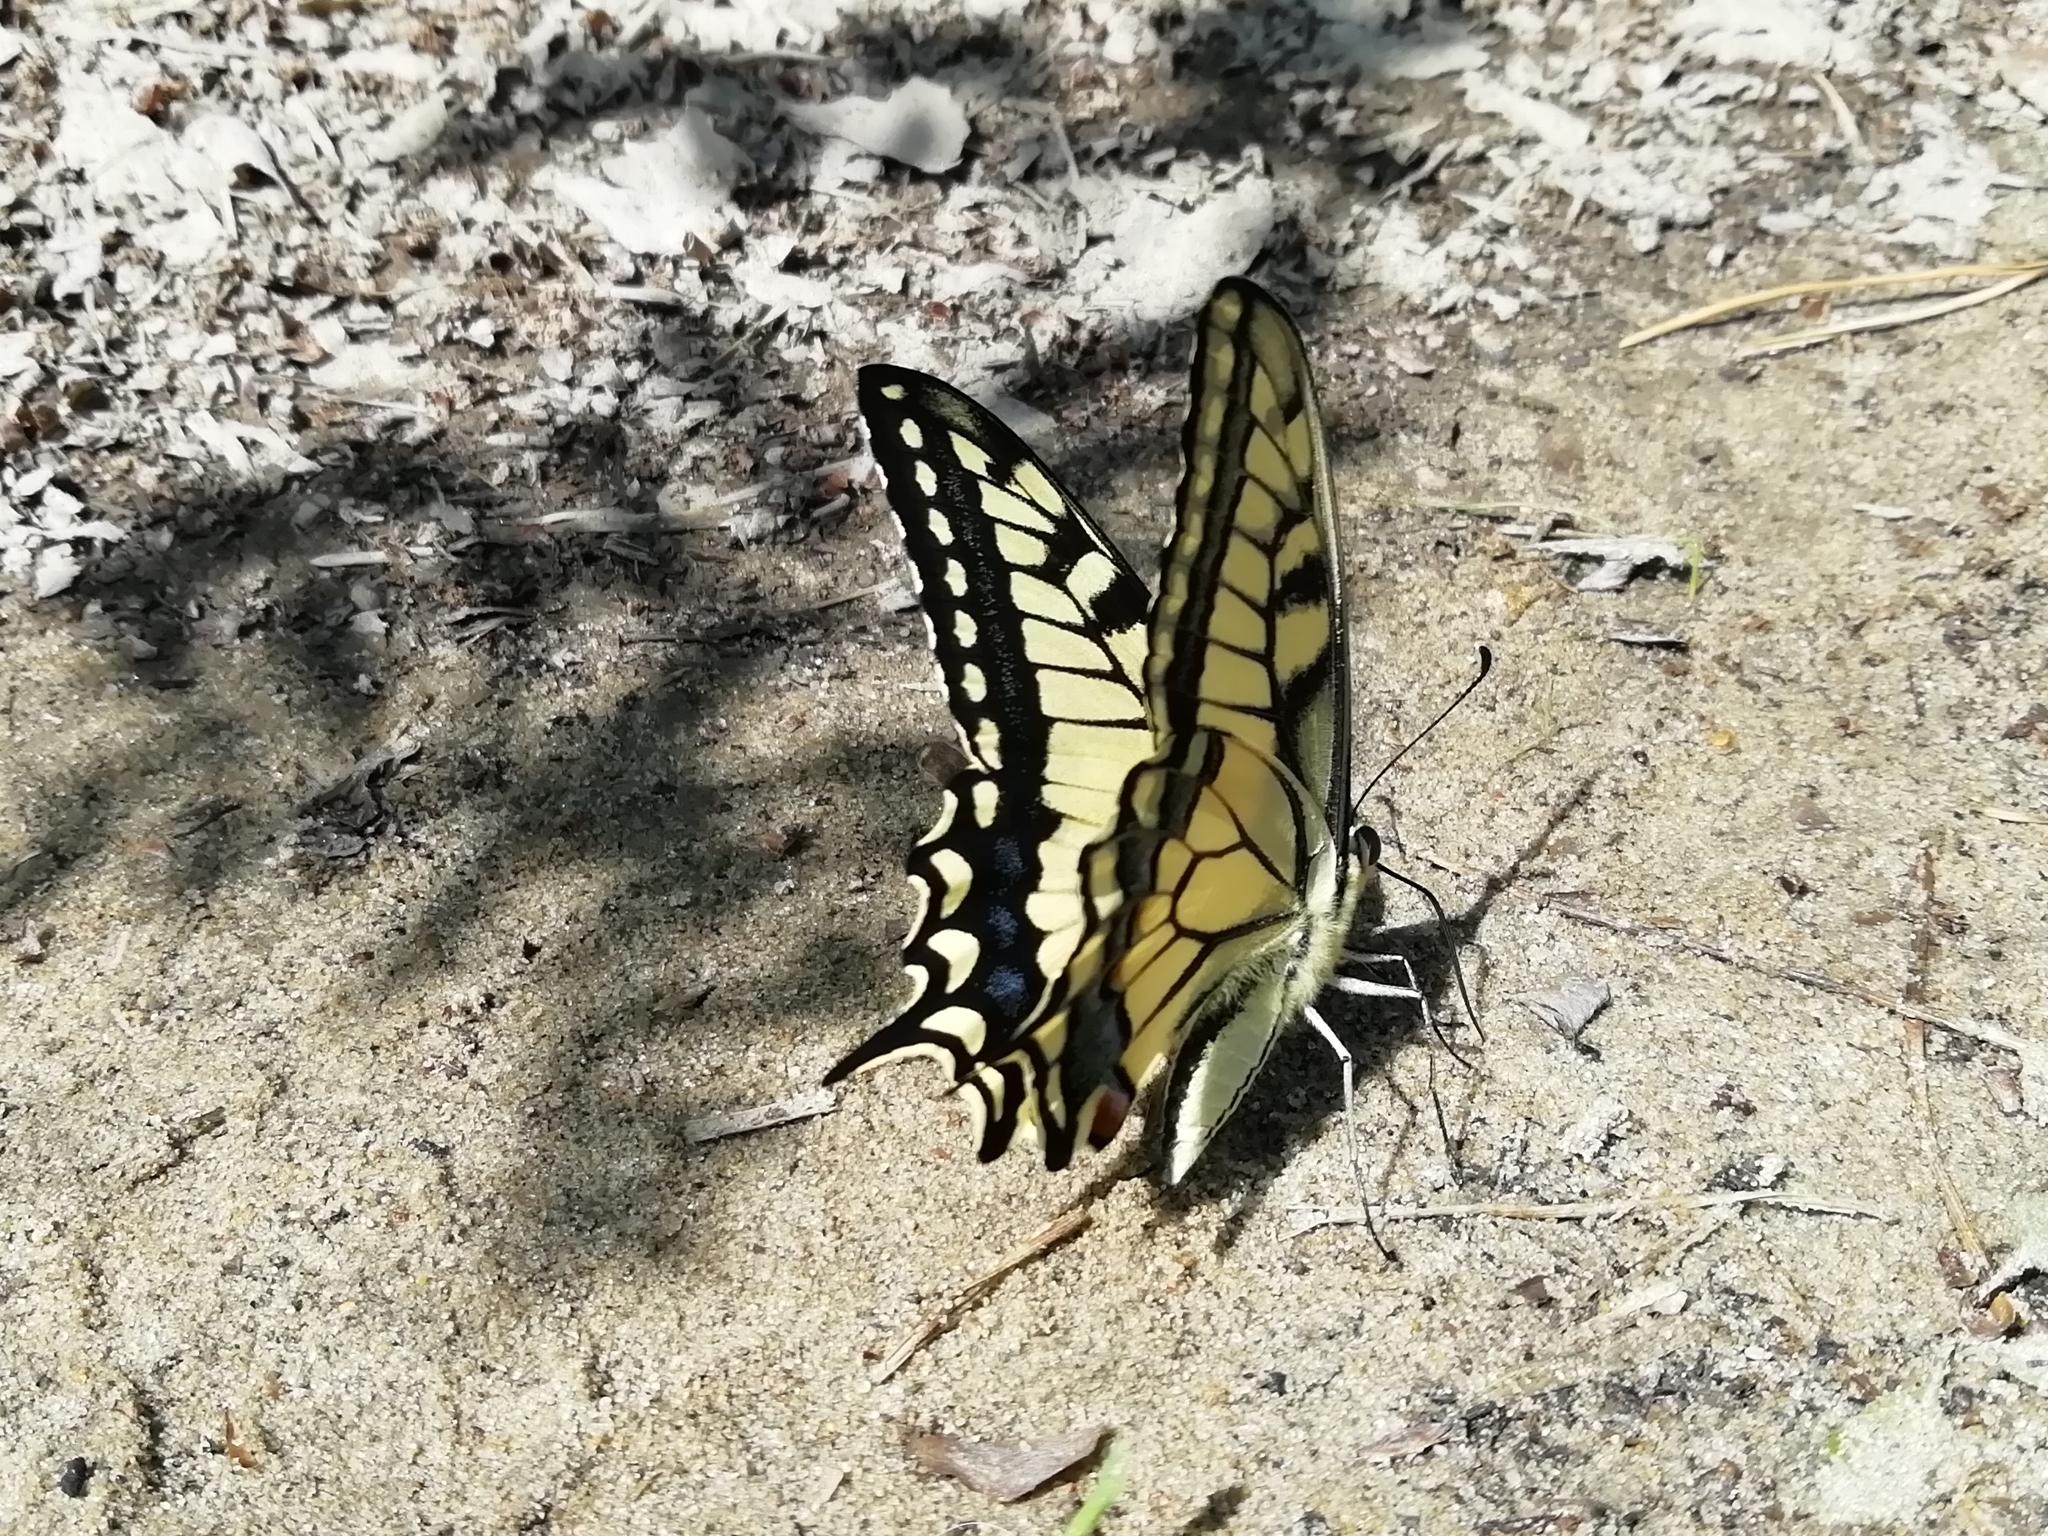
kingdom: Animalia
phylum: Arthropoda
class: Insecta
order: Lepidoptera
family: Papilionidae
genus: Papilio
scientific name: Papilio machaon
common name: Swallowtail
